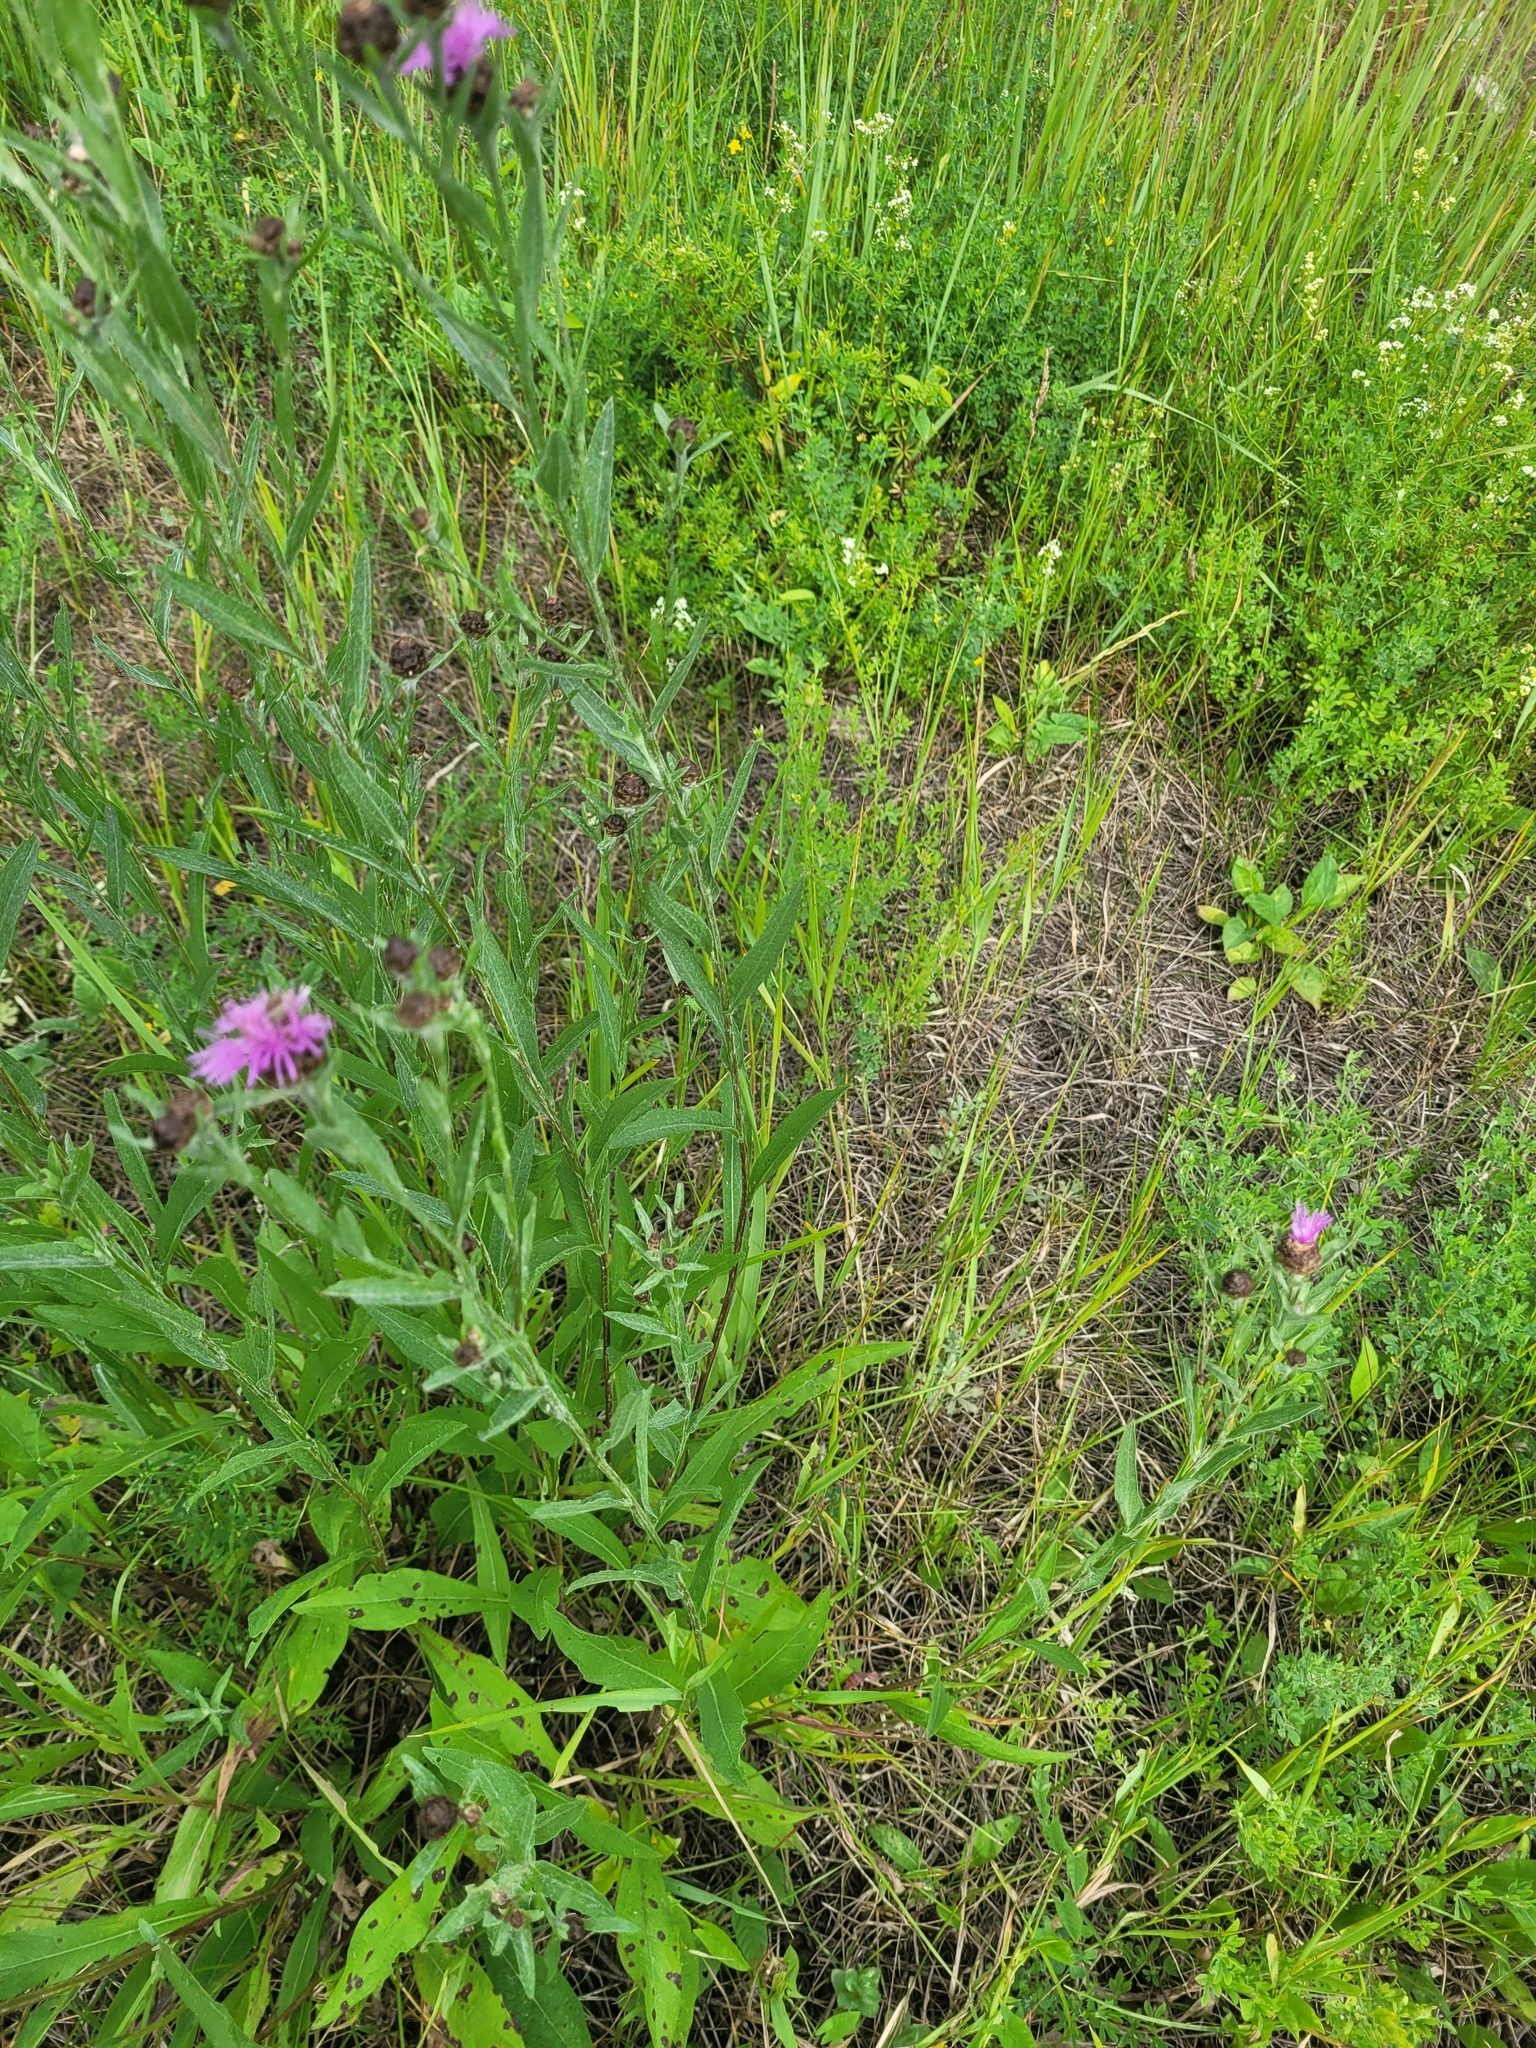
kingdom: Plantae
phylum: Tracheophyta
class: Magnoliopsida
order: Asterales
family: Asteraceae
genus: Centaurea
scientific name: Centaurea jacea
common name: Brown knapweed
